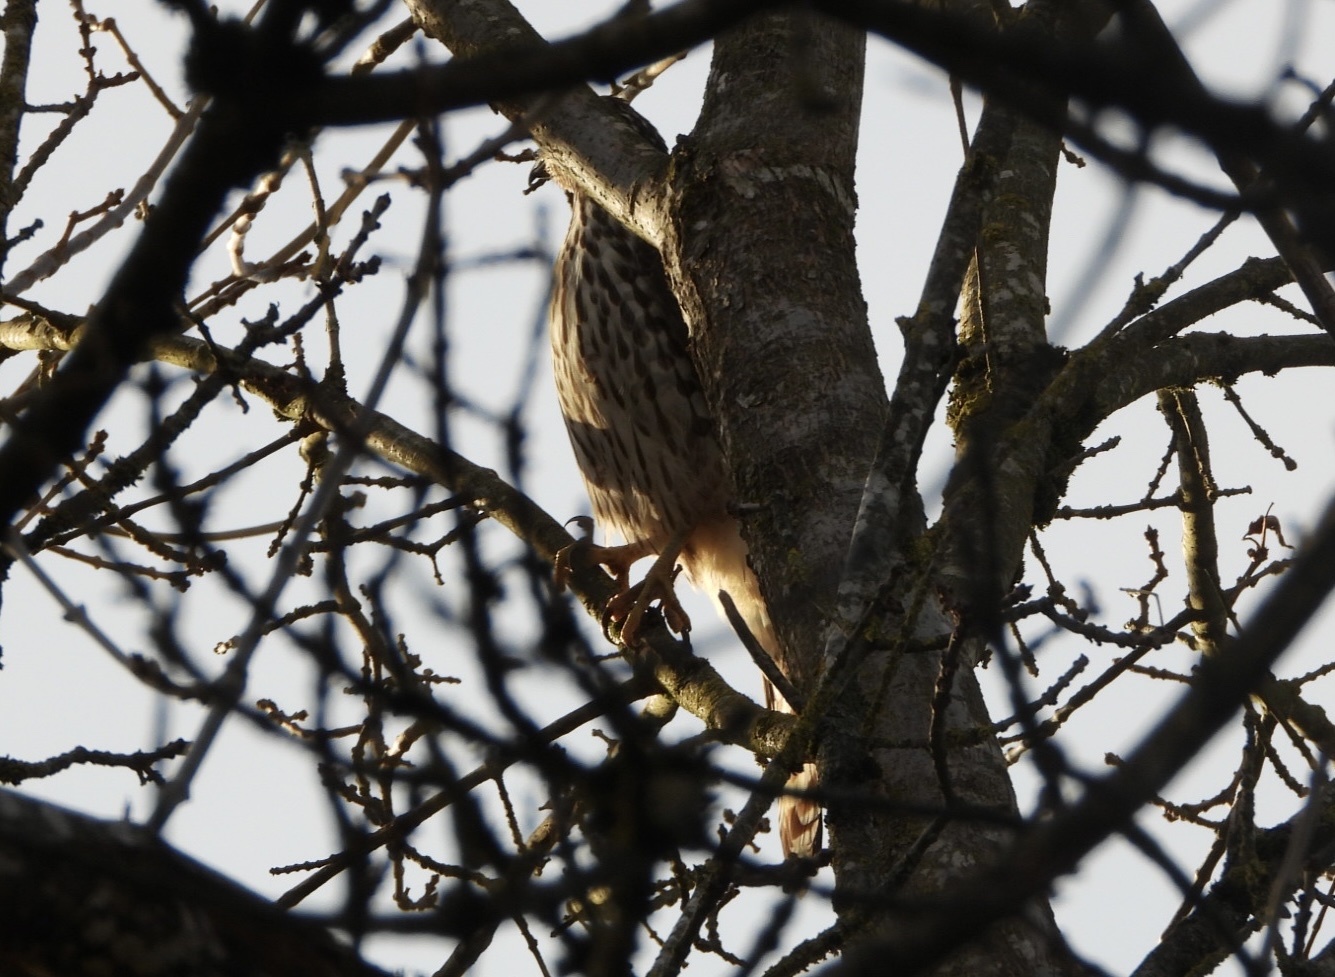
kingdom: Animalia
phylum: Chordata
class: Aves
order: Accipitriformes
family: Accipitridae
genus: Accipiter
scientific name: Accipiter cooperii
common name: Cooper's hawk
